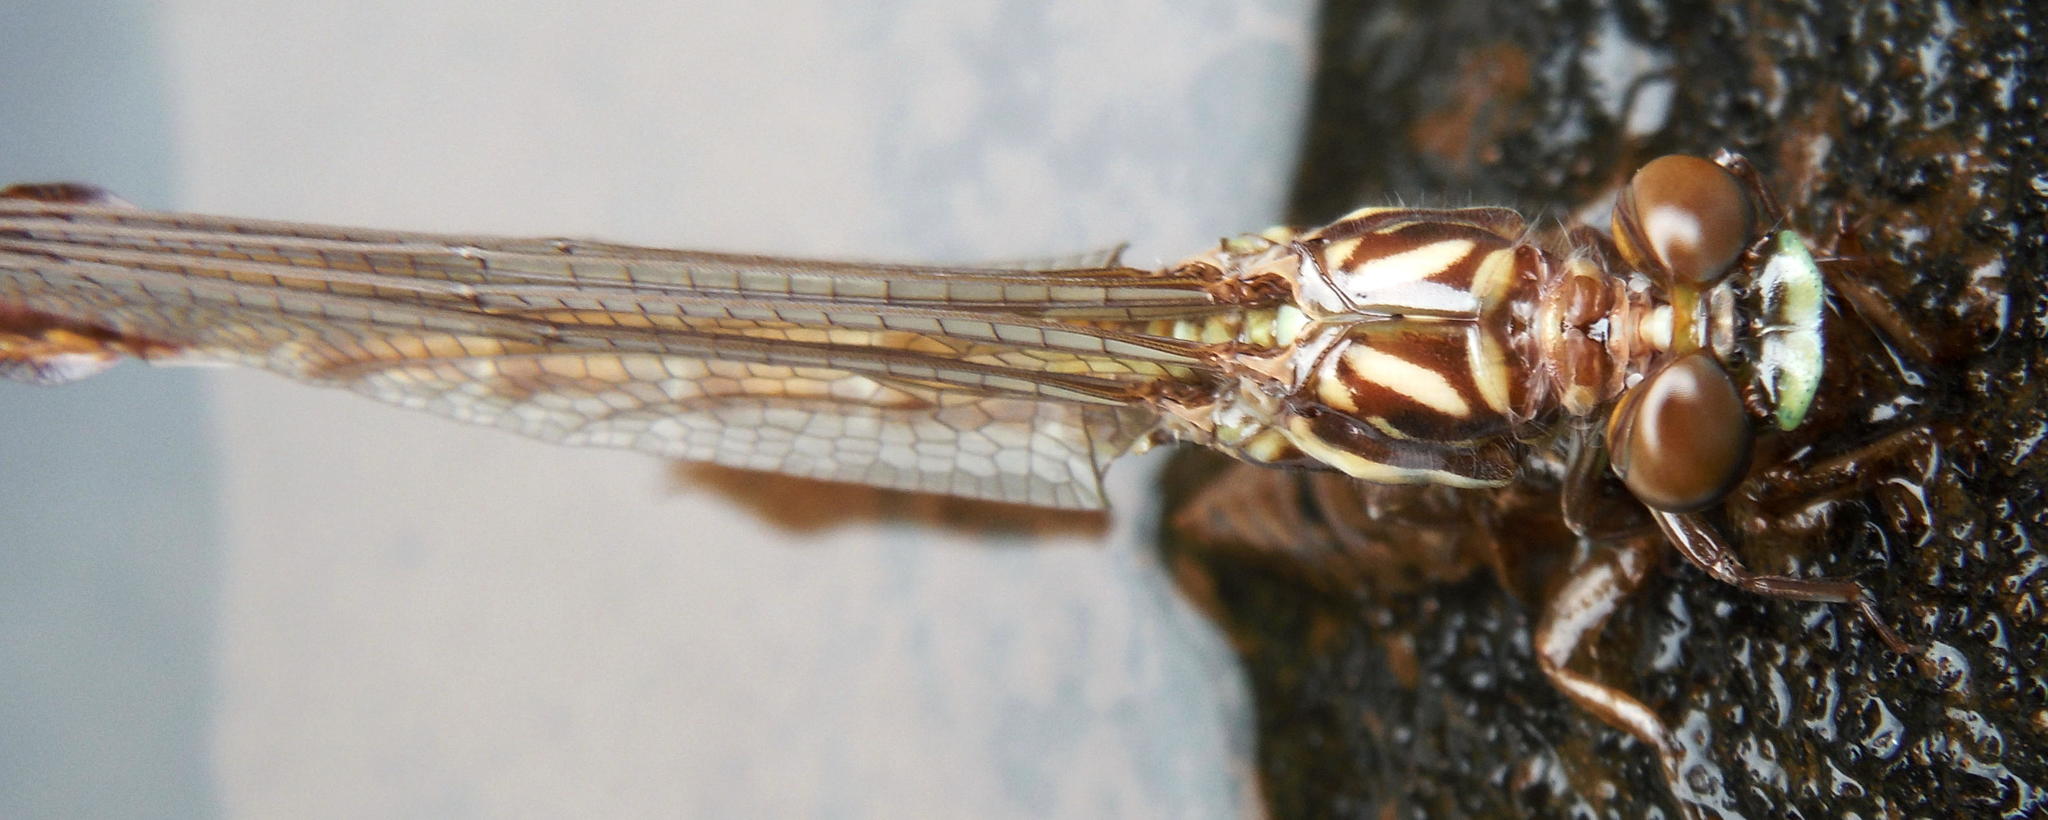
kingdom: Animalia
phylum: Arthropoda
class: Insecta
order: Odonata
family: Gomphidae
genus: Paragomphus
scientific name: Paragomphus cognatus
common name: Boulder hooktail
